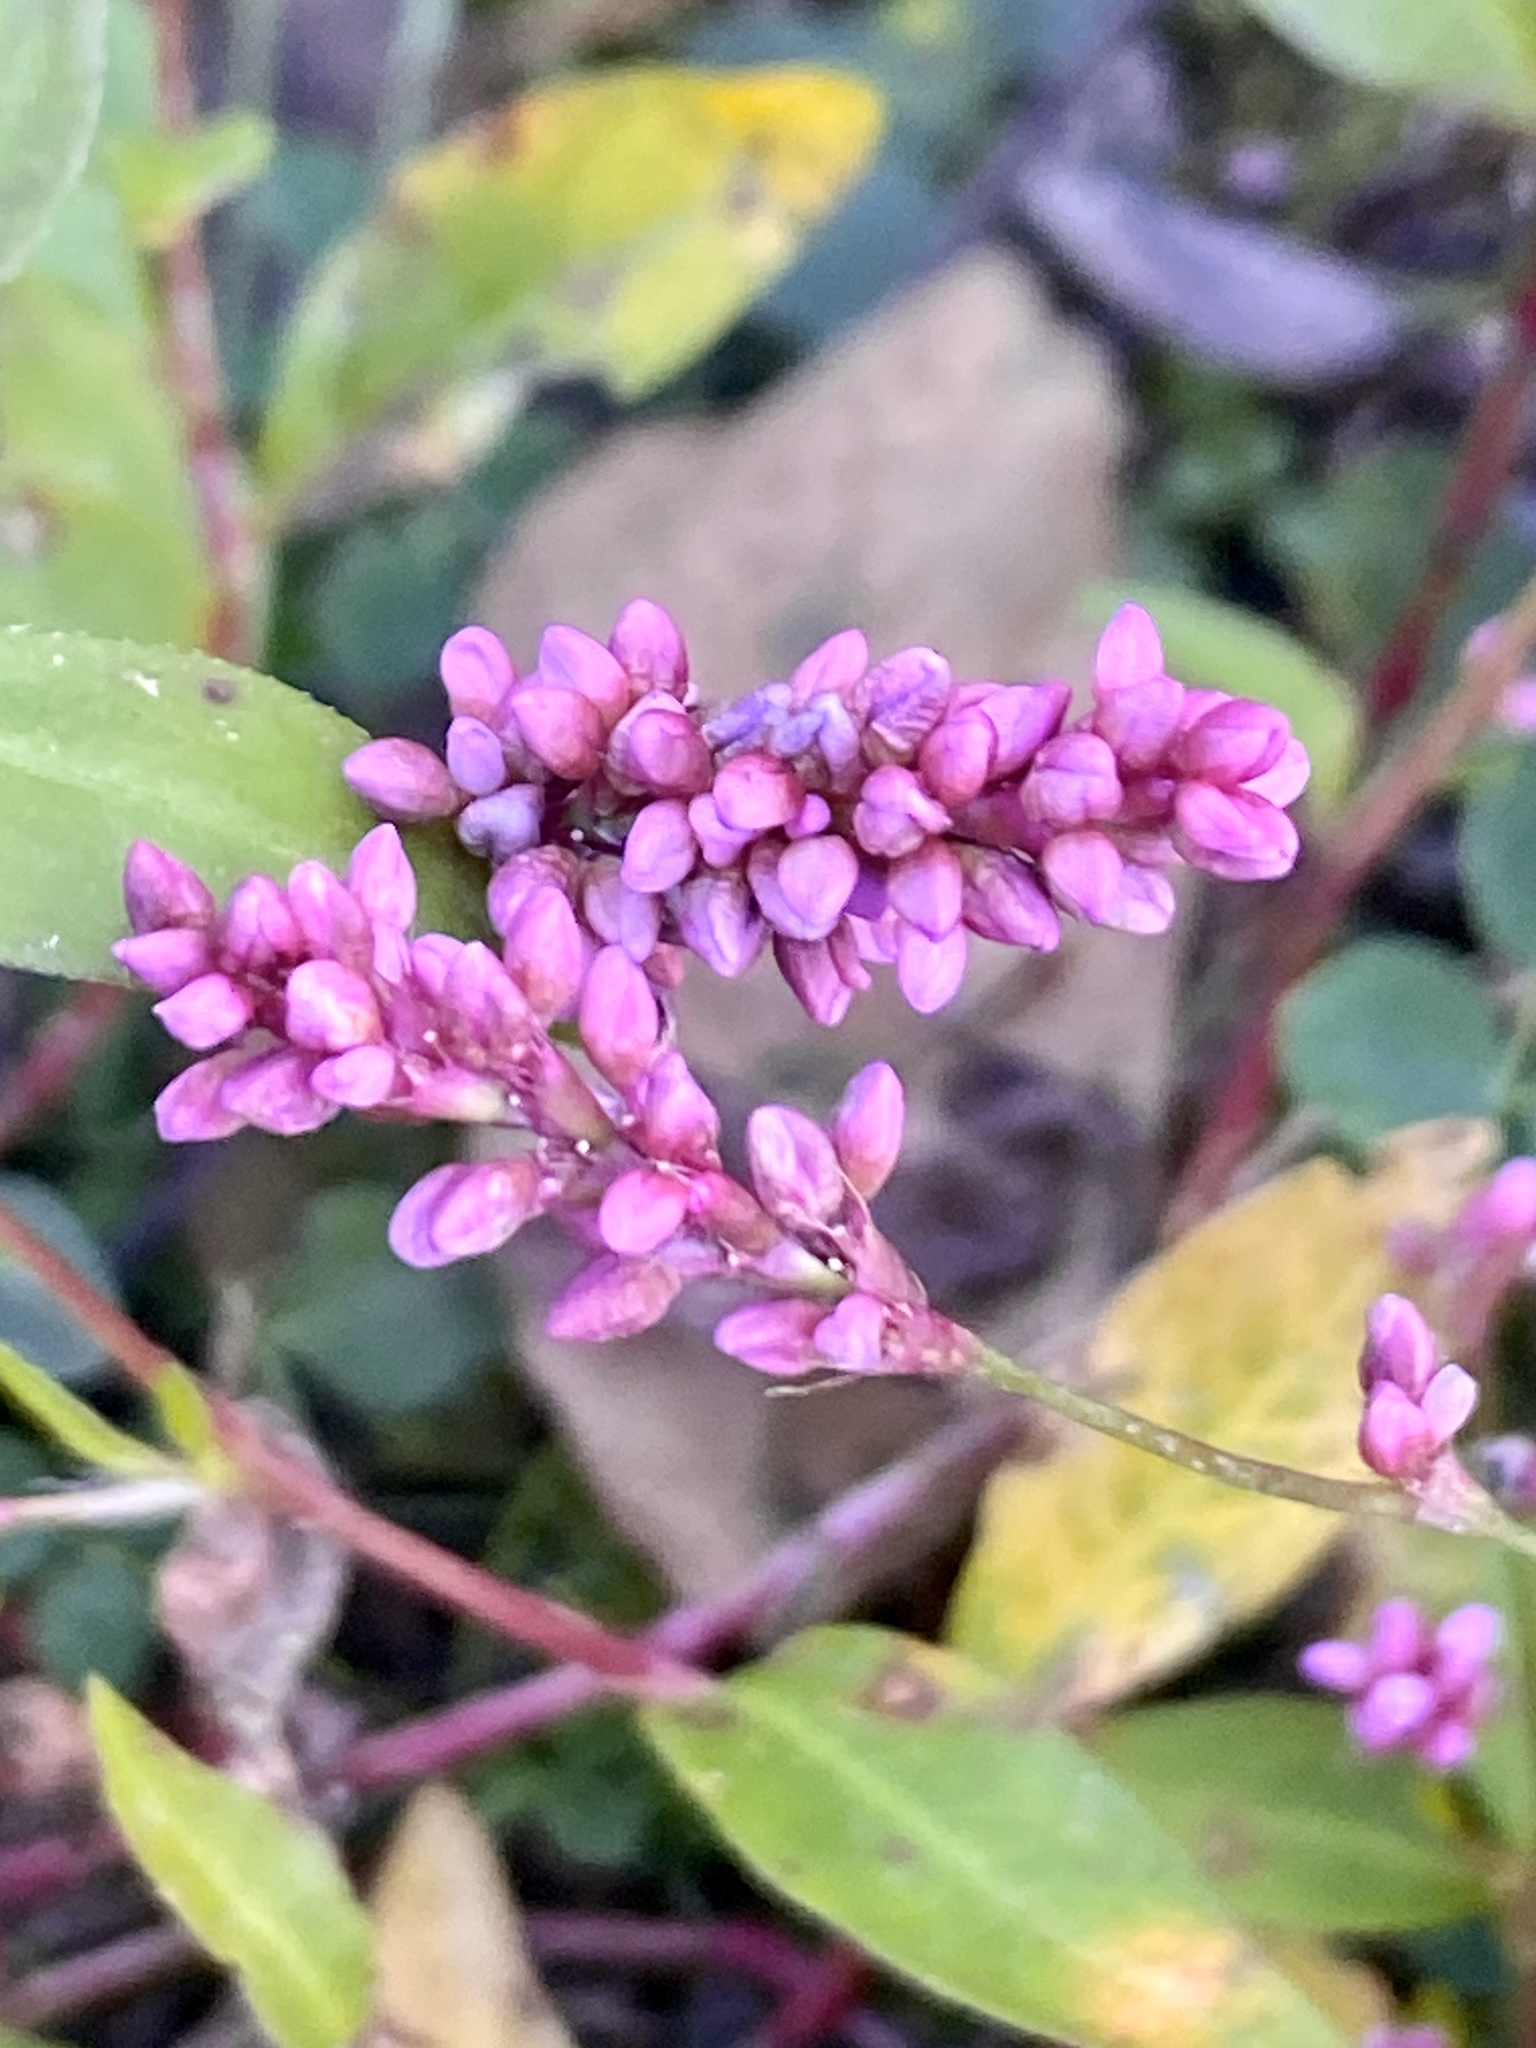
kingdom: Plantae
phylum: Tracheophyta
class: Magnoliopsida
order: Caryophyllales
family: Polygonaceae
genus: Persicaria
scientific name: Persicaria longiseta
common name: Bristly lady's-thumb
